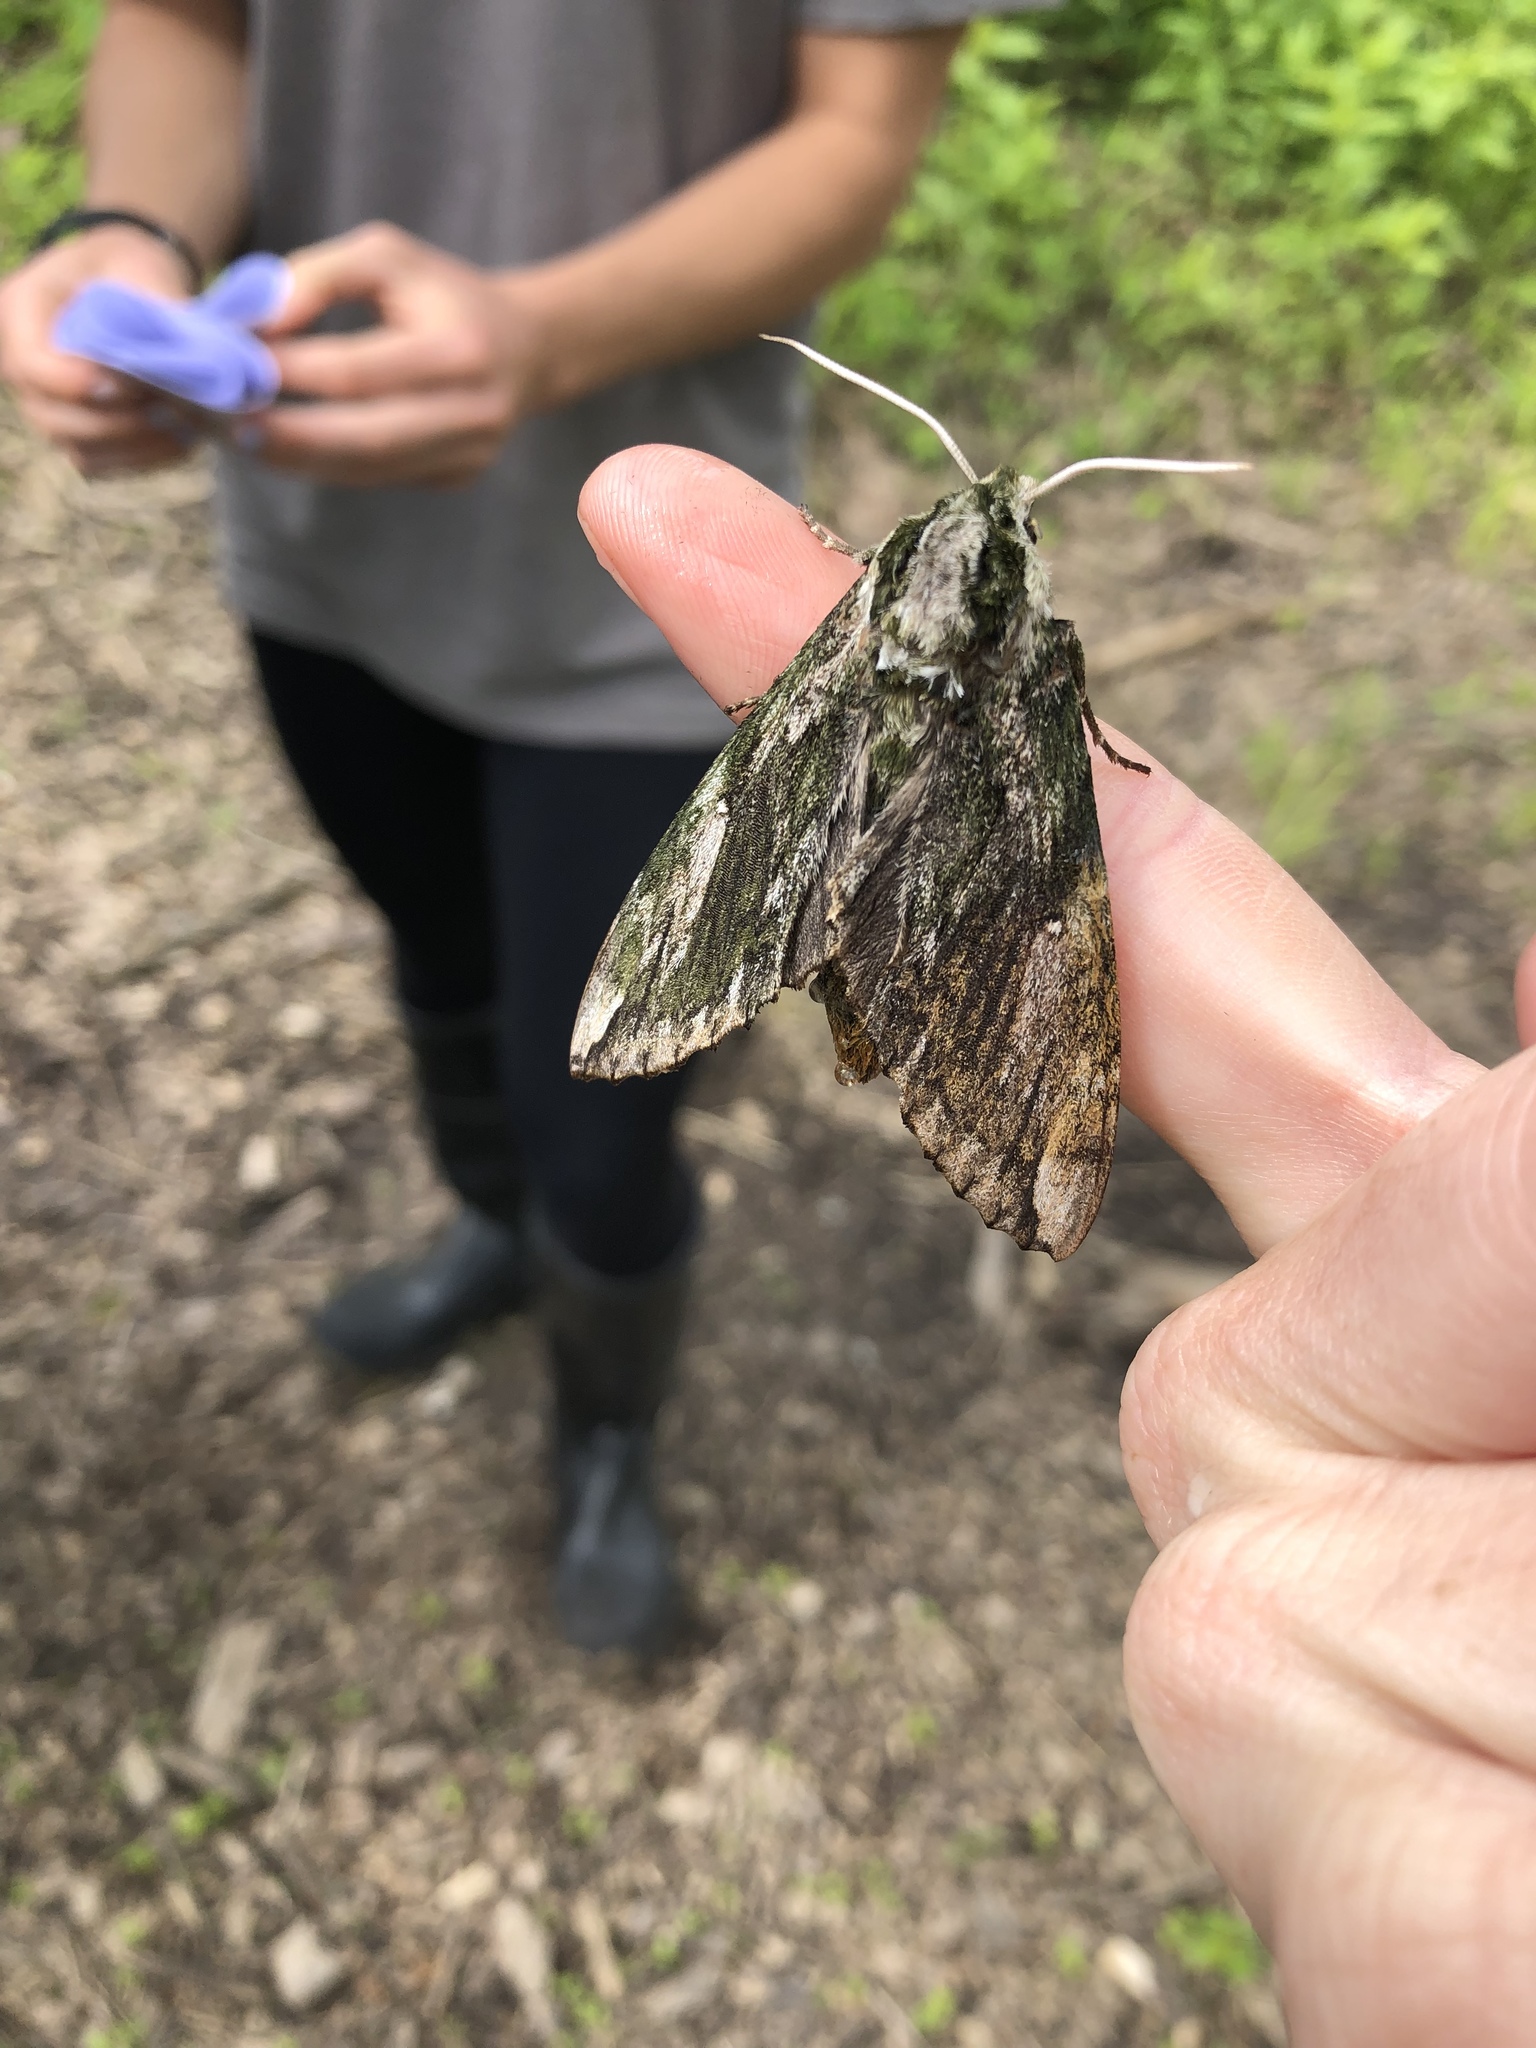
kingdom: Animalia
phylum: Arthropoda
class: Insecta
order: Lepidoptera
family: Sphingidae
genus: Ceratomia
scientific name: Ceratomia hageni
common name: Hagen's sphinx
